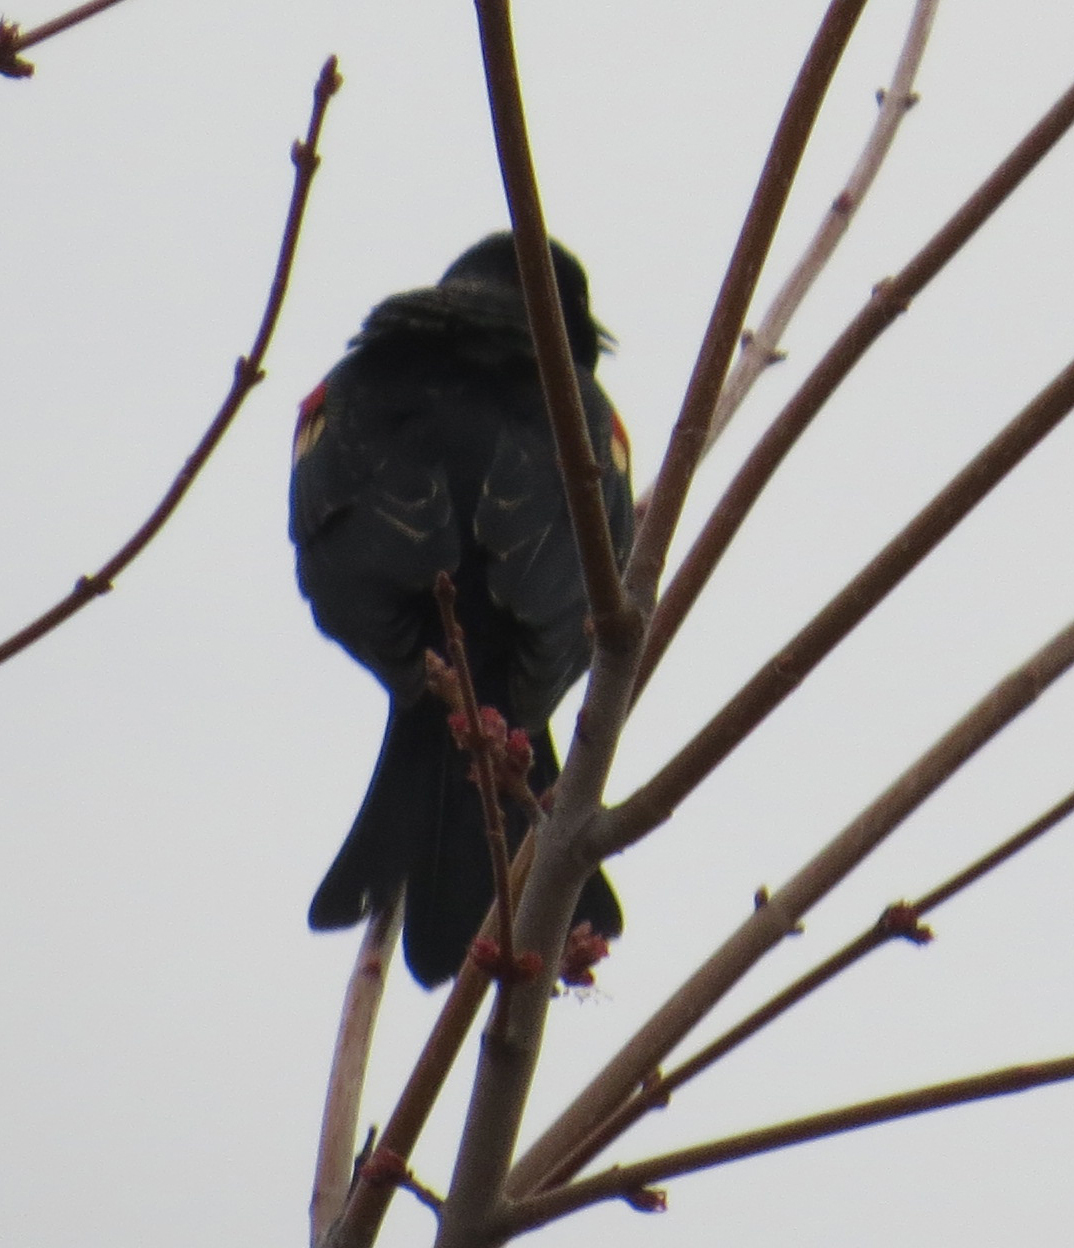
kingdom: Animalia
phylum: Chordata
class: Aves
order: Passeriformes
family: Icteridae
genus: Agelaius
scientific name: Agelaius phoeniceus
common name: Red-winged blackbird
